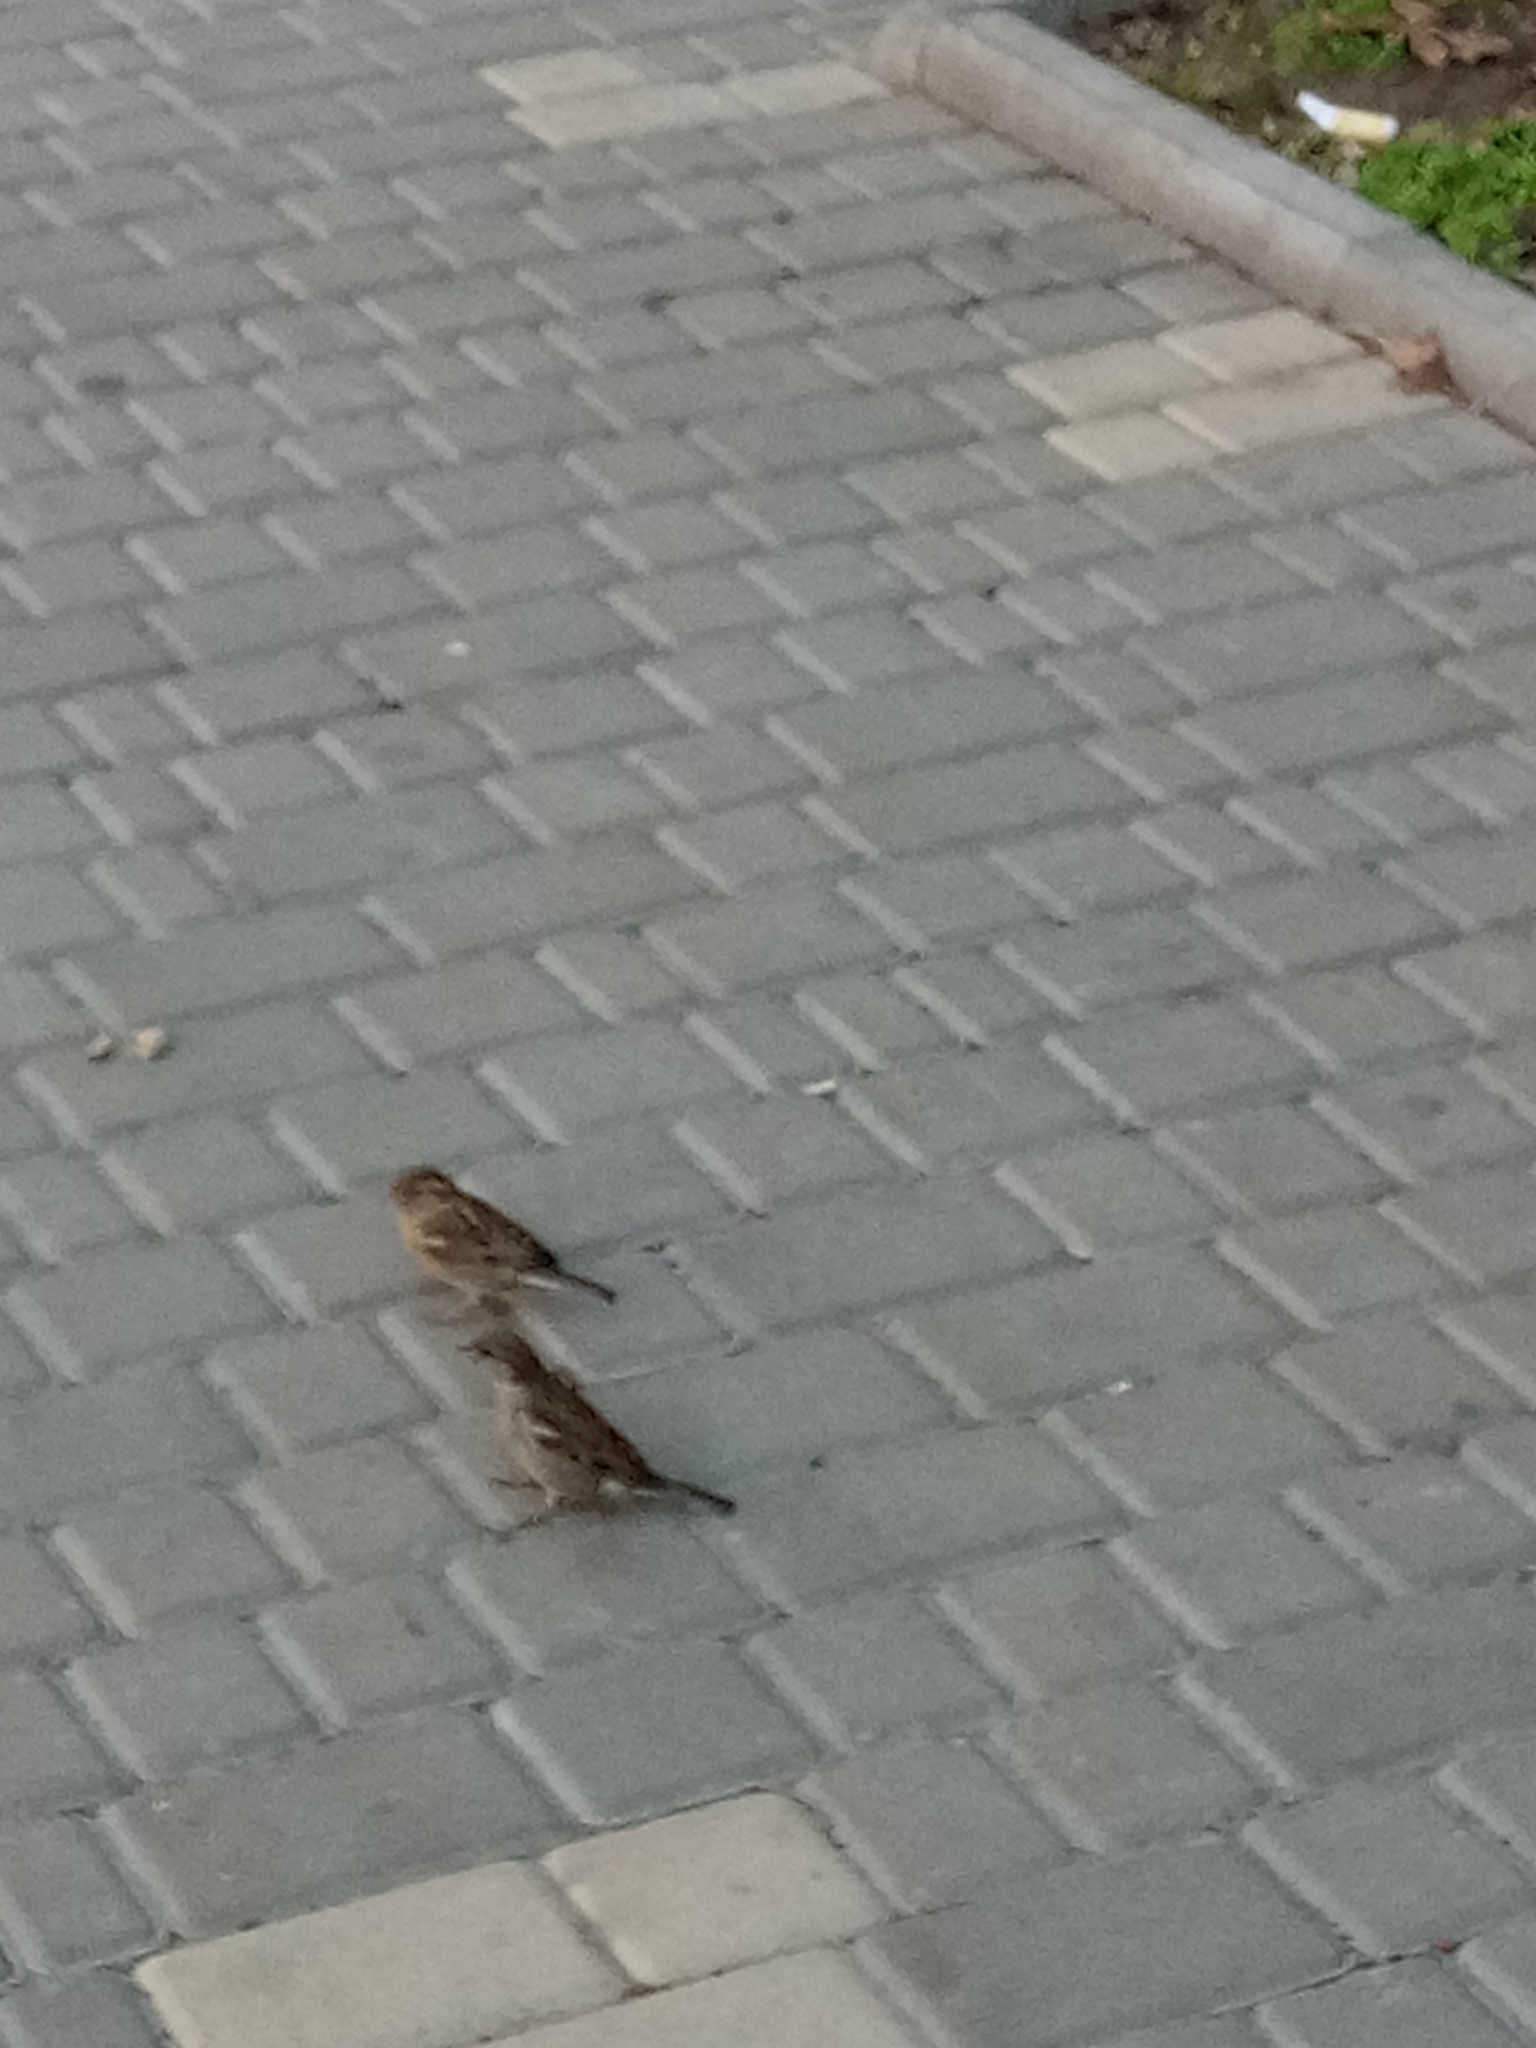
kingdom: Animalia
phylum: Chordata
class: Aves
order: Passeriformes
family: Passeridae
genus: Passer
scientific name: Passer domesticus
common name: House sparrow
